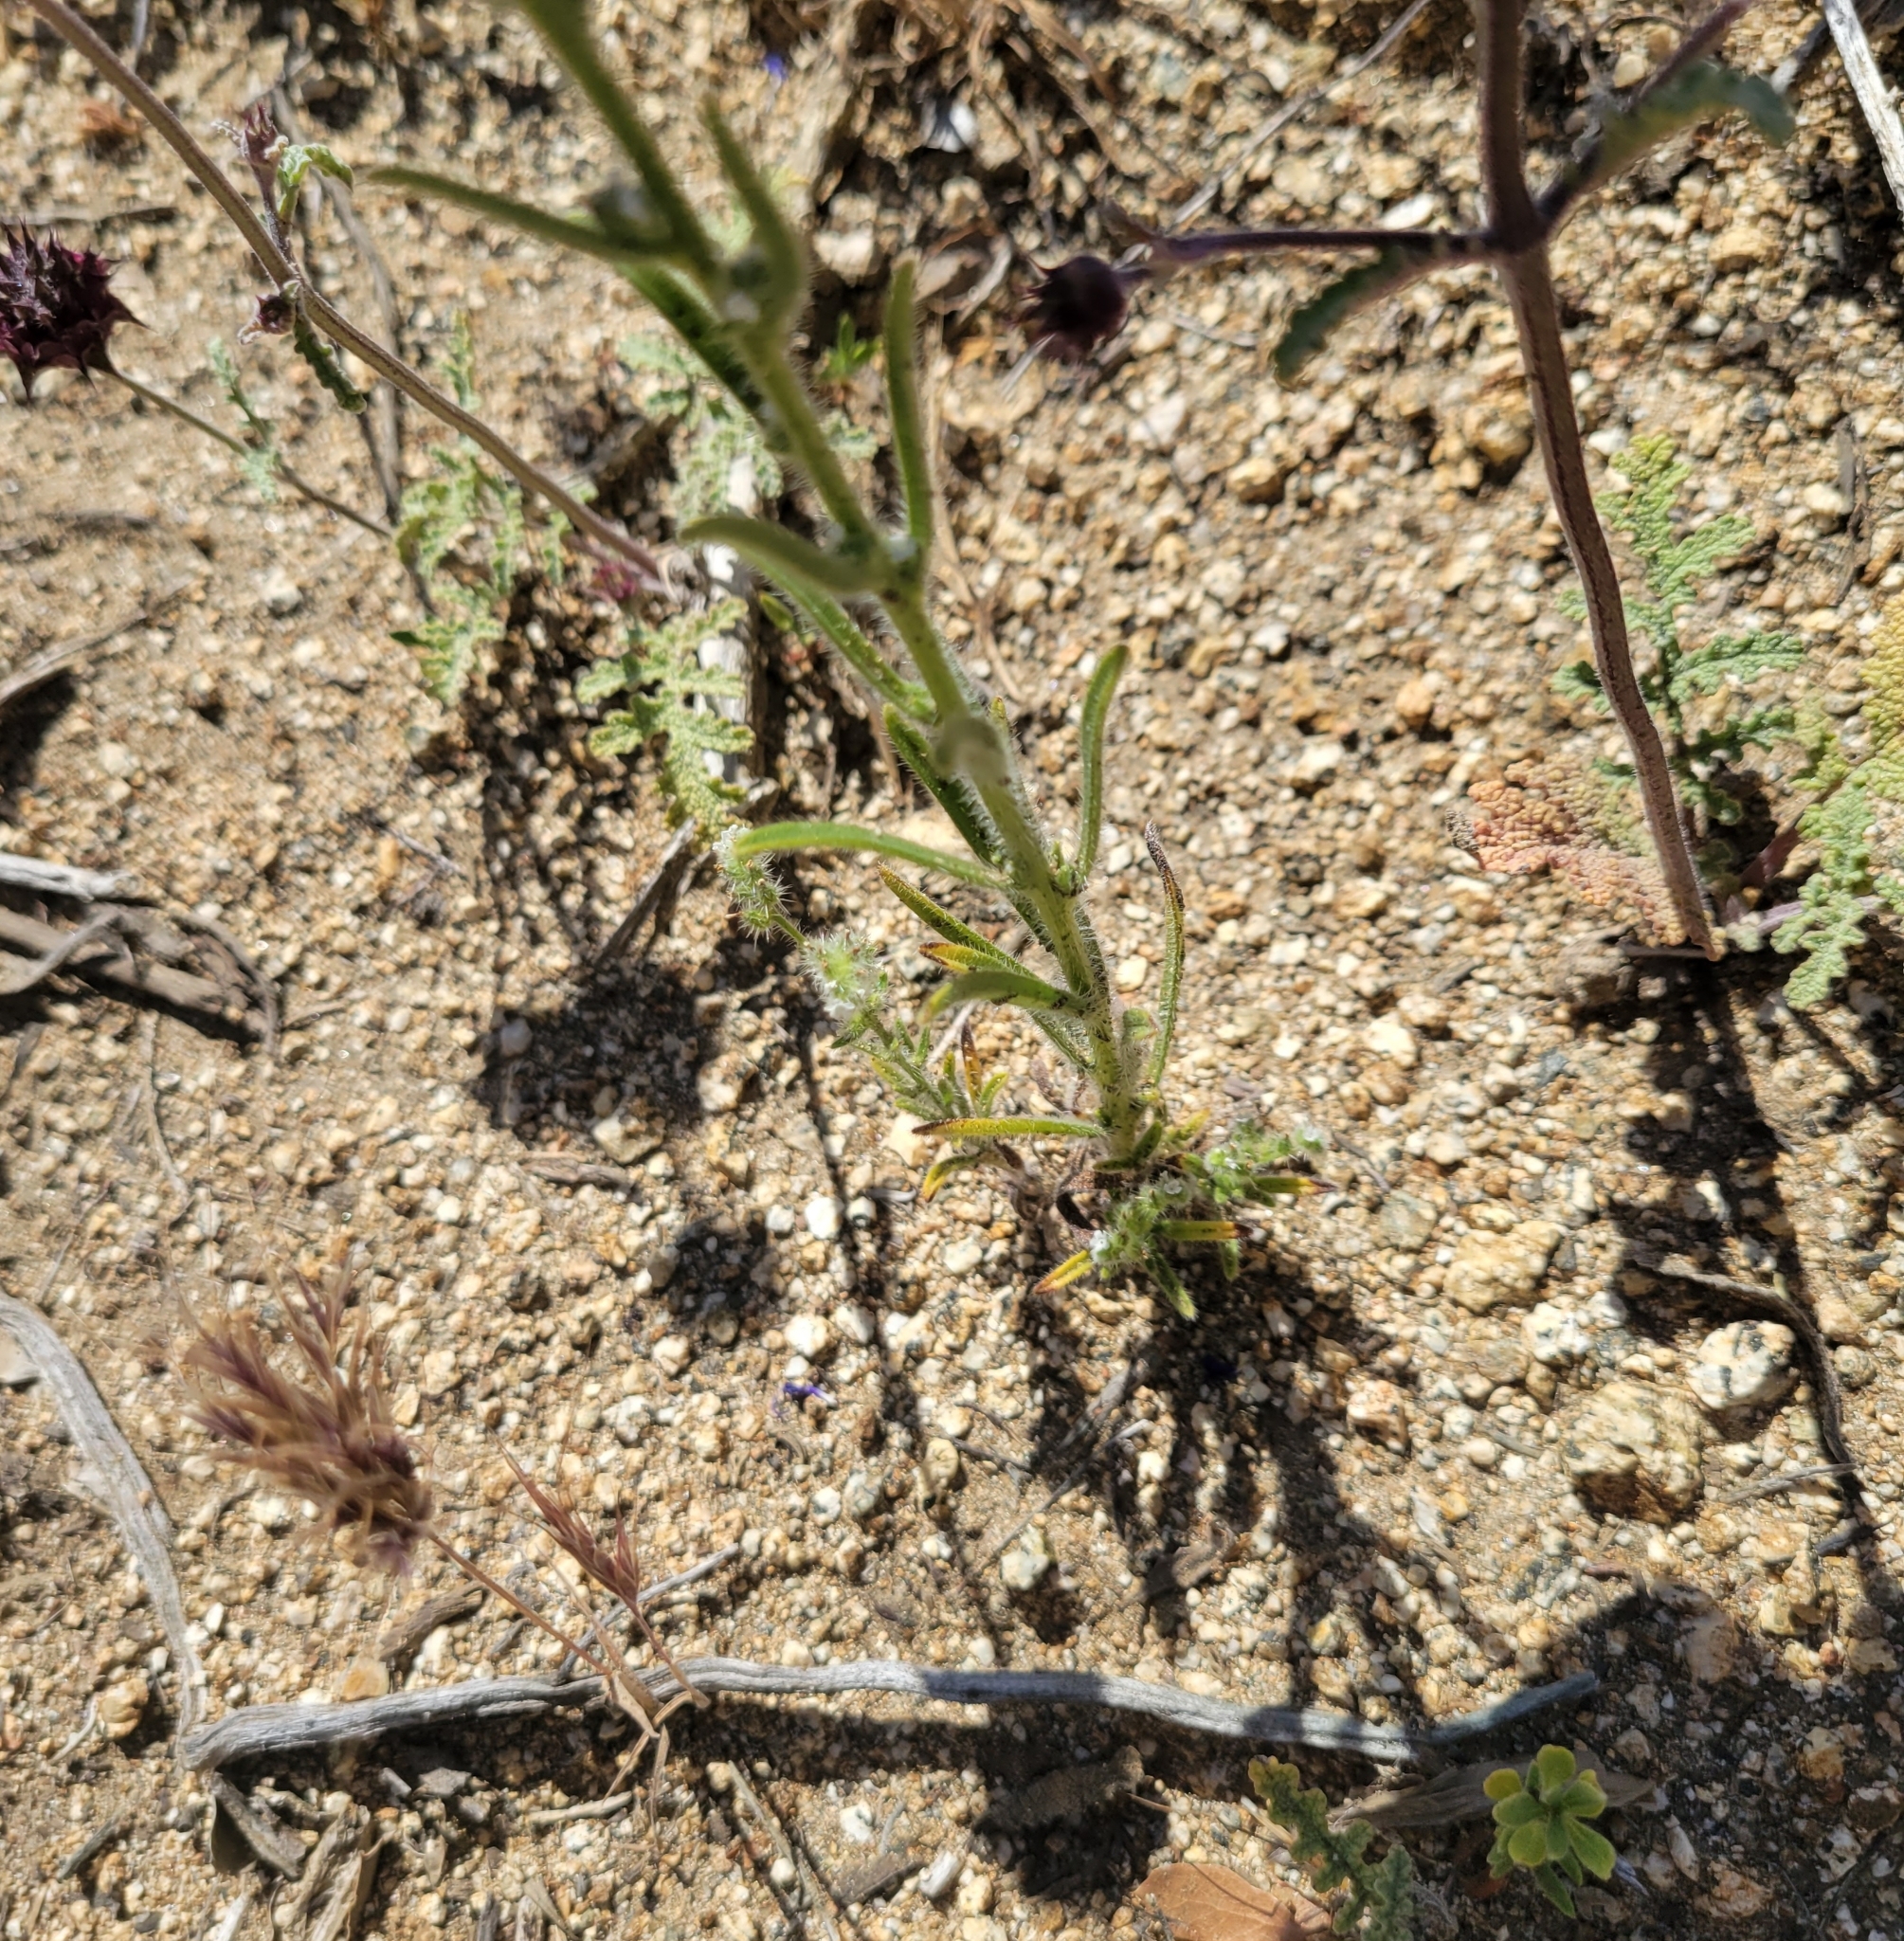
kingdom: Plantae
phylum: Tracheophyta
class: Magnoliopsida
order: Boraginales
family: Boraginaceae
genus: Cryptantha
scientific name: Cryptantha muricata
